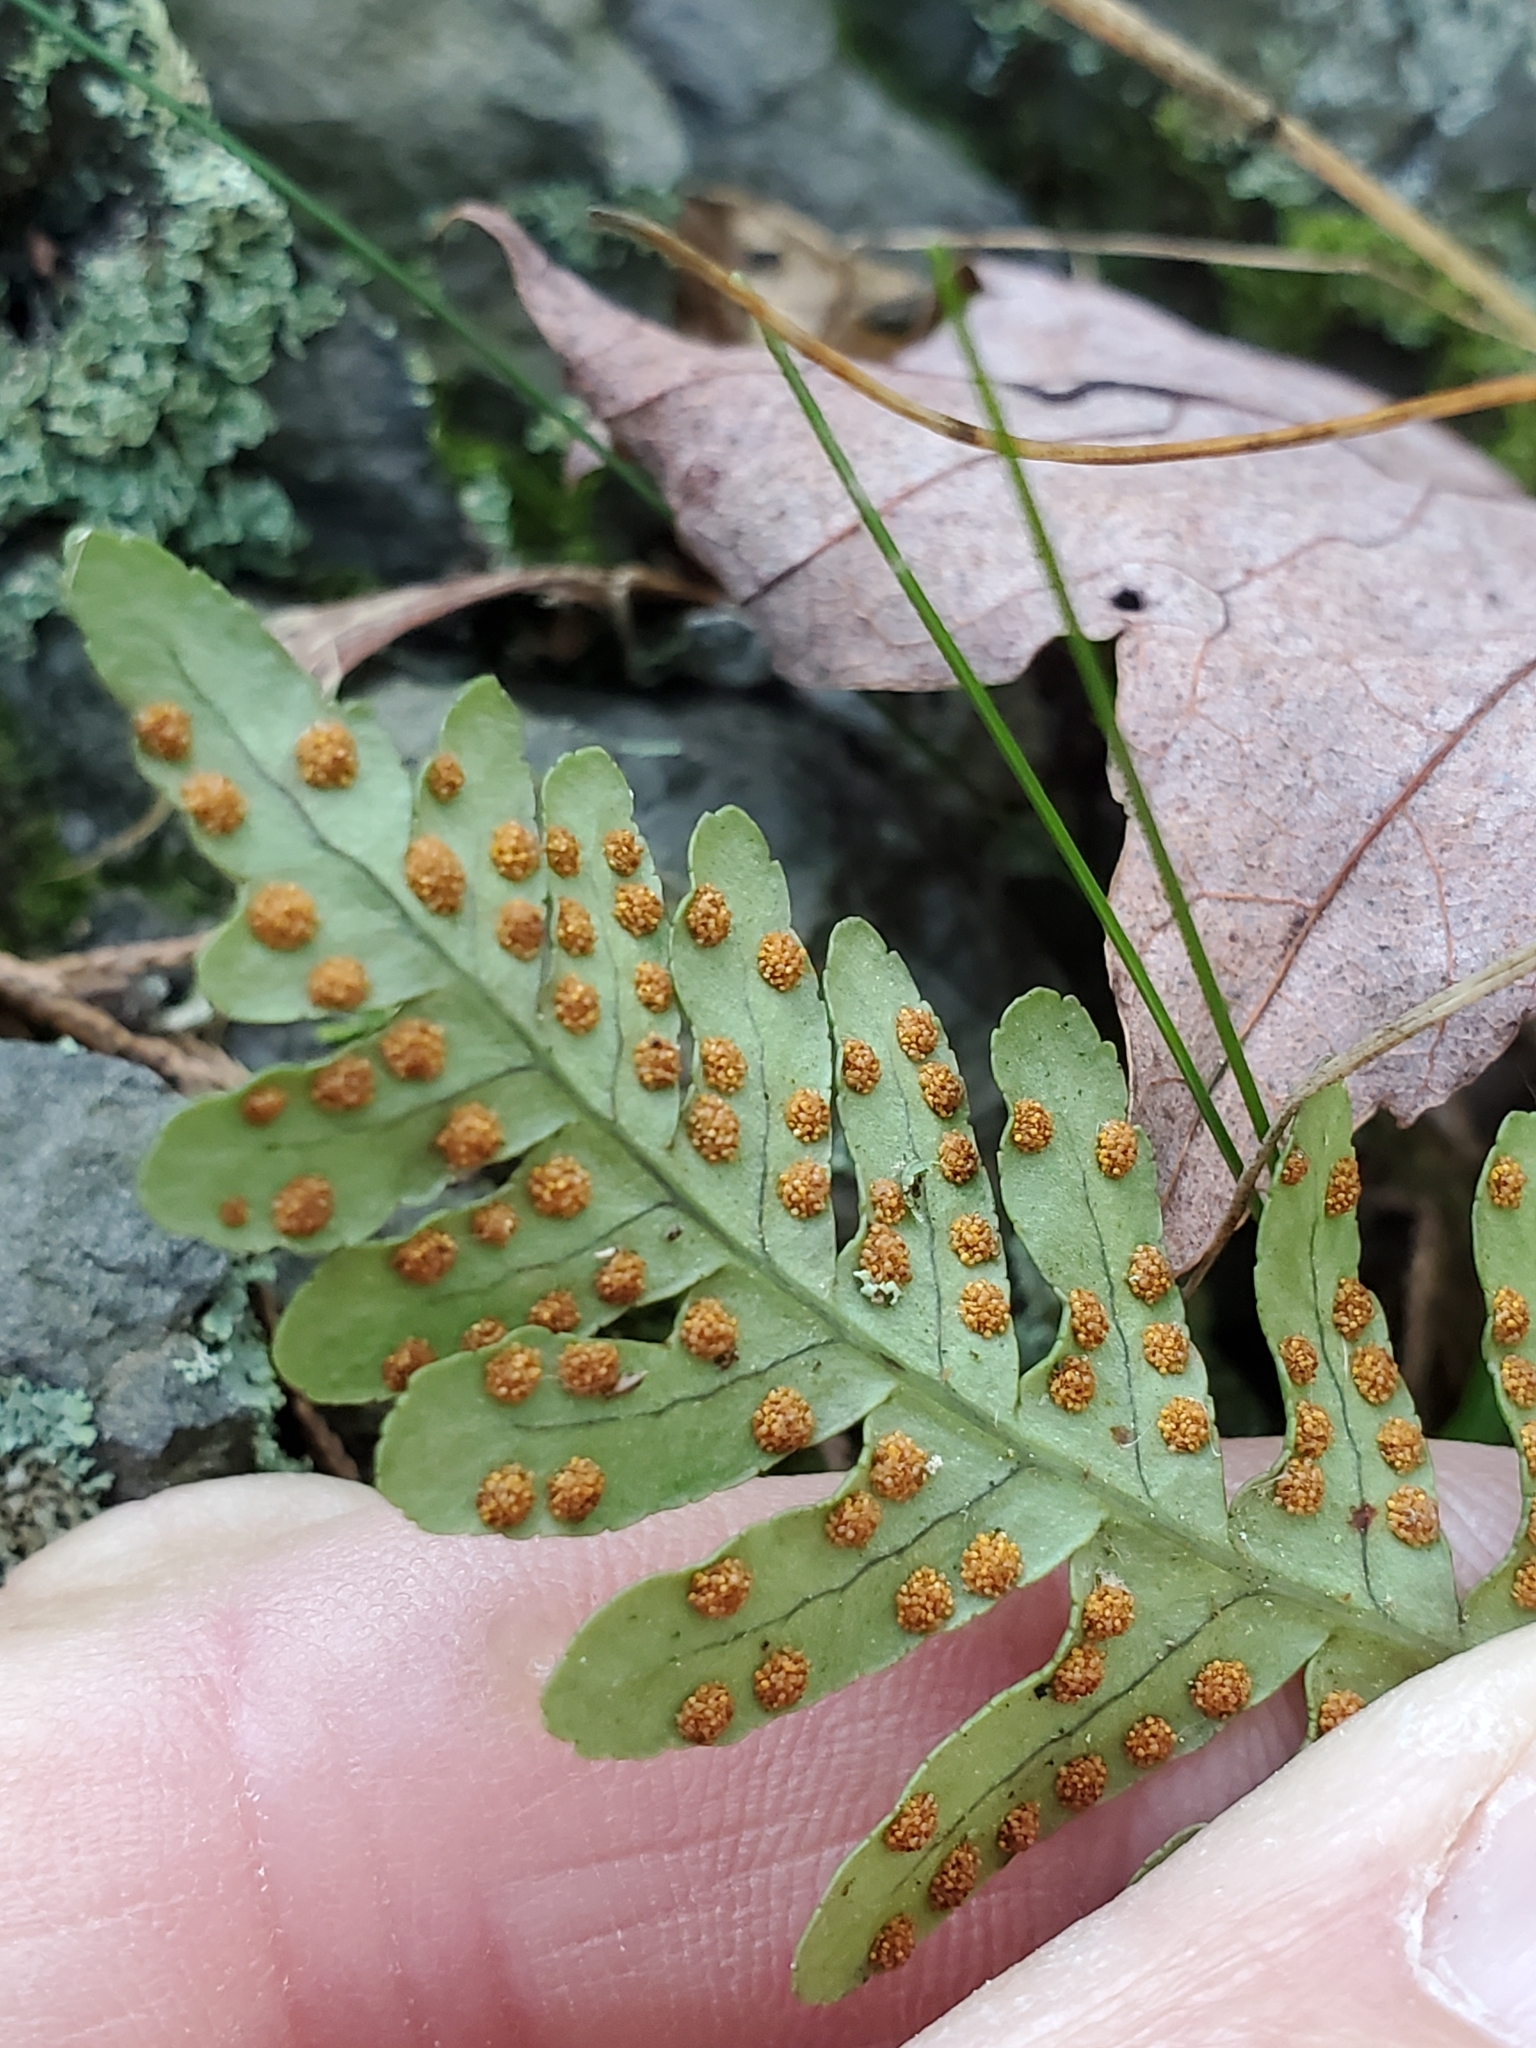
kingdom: Plantae
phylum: Tracheophyta
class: Polypodiopsida
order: Polypodiales
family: Polypodiaceae
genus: Polypodium
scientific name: Polypodium virginianum
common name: American wall fern
